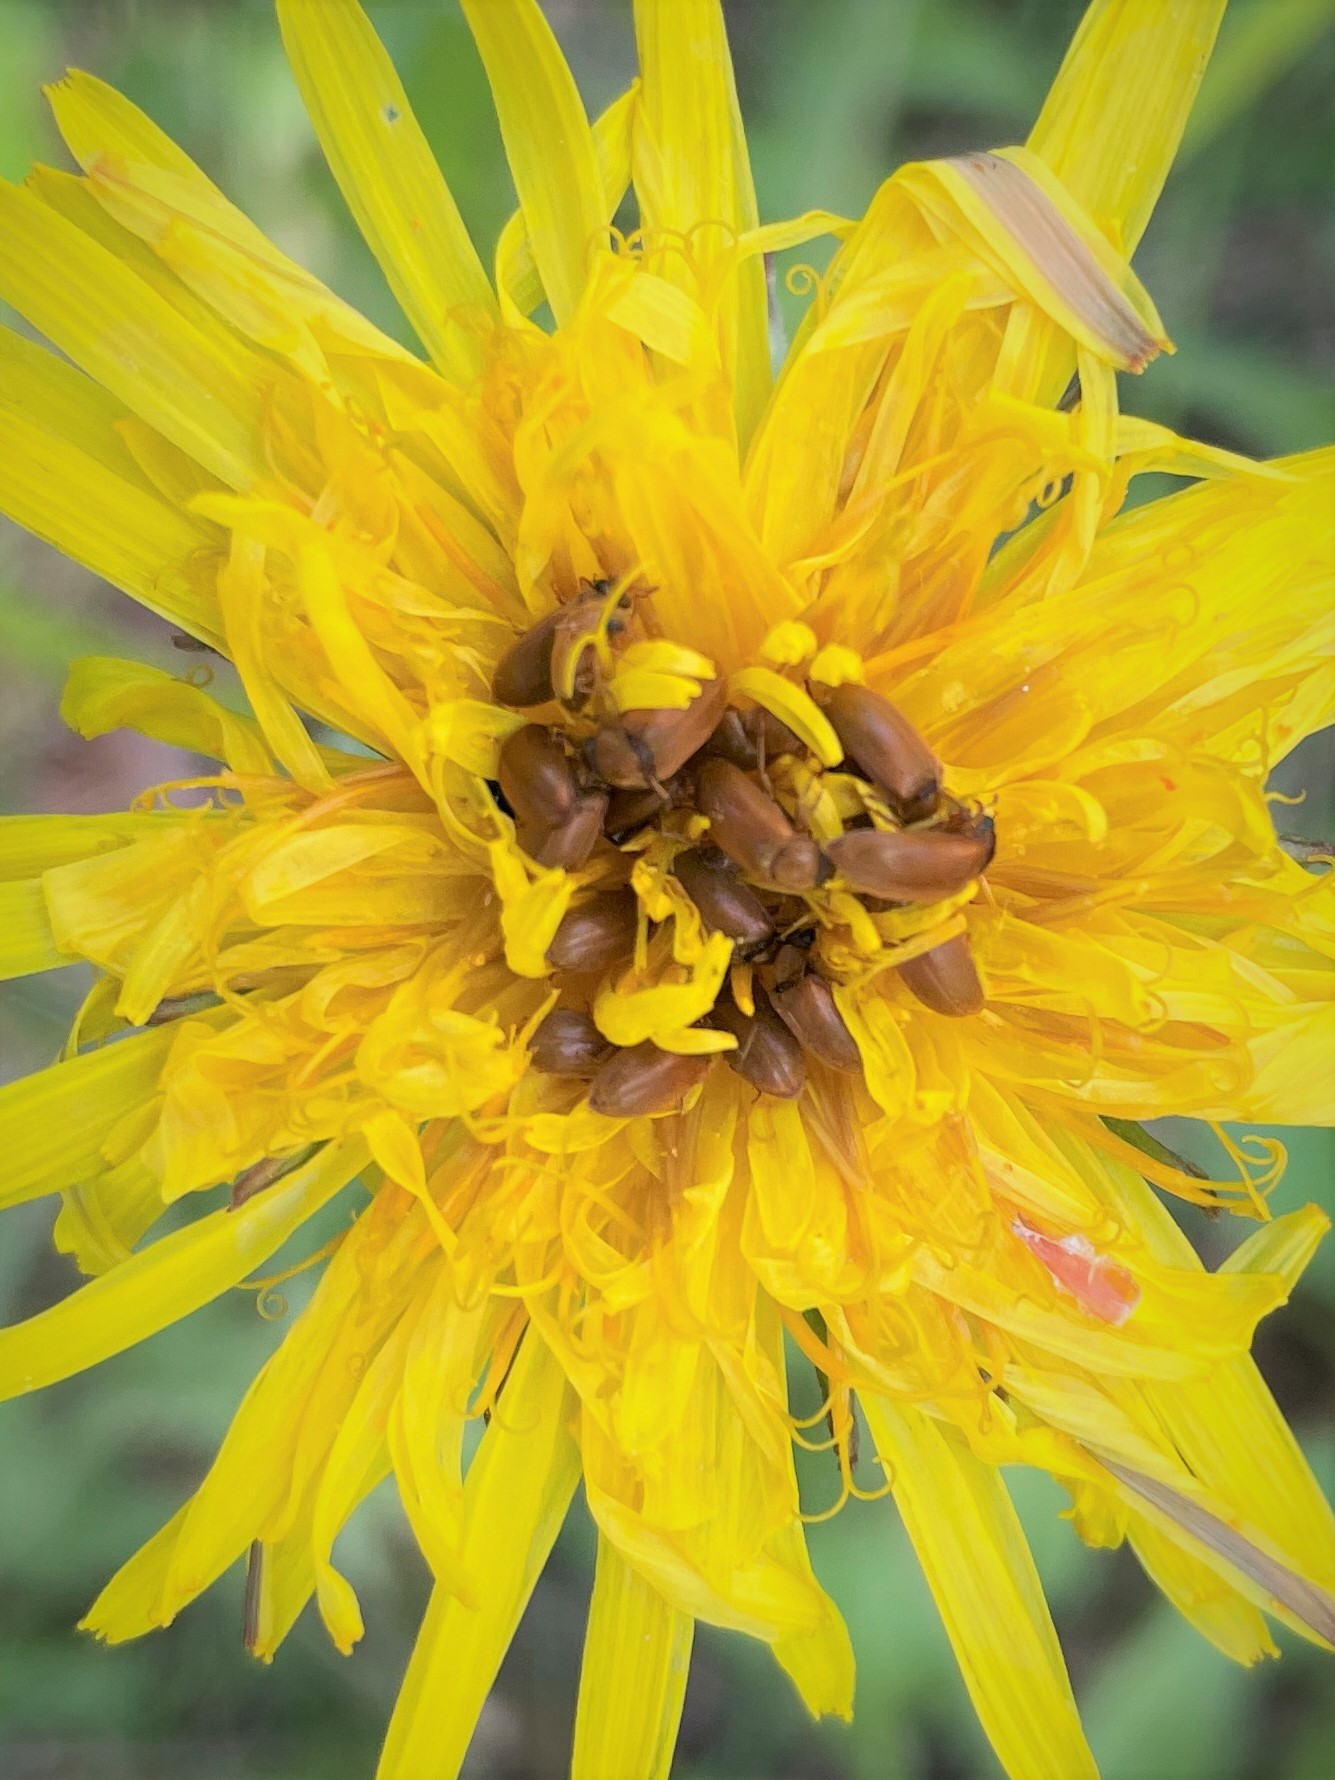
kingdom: Animalia
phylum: Arthropoda
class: Insecta
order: Coleoptera
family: Byturidae
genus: Byturus
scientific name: Byturus ochraceus
